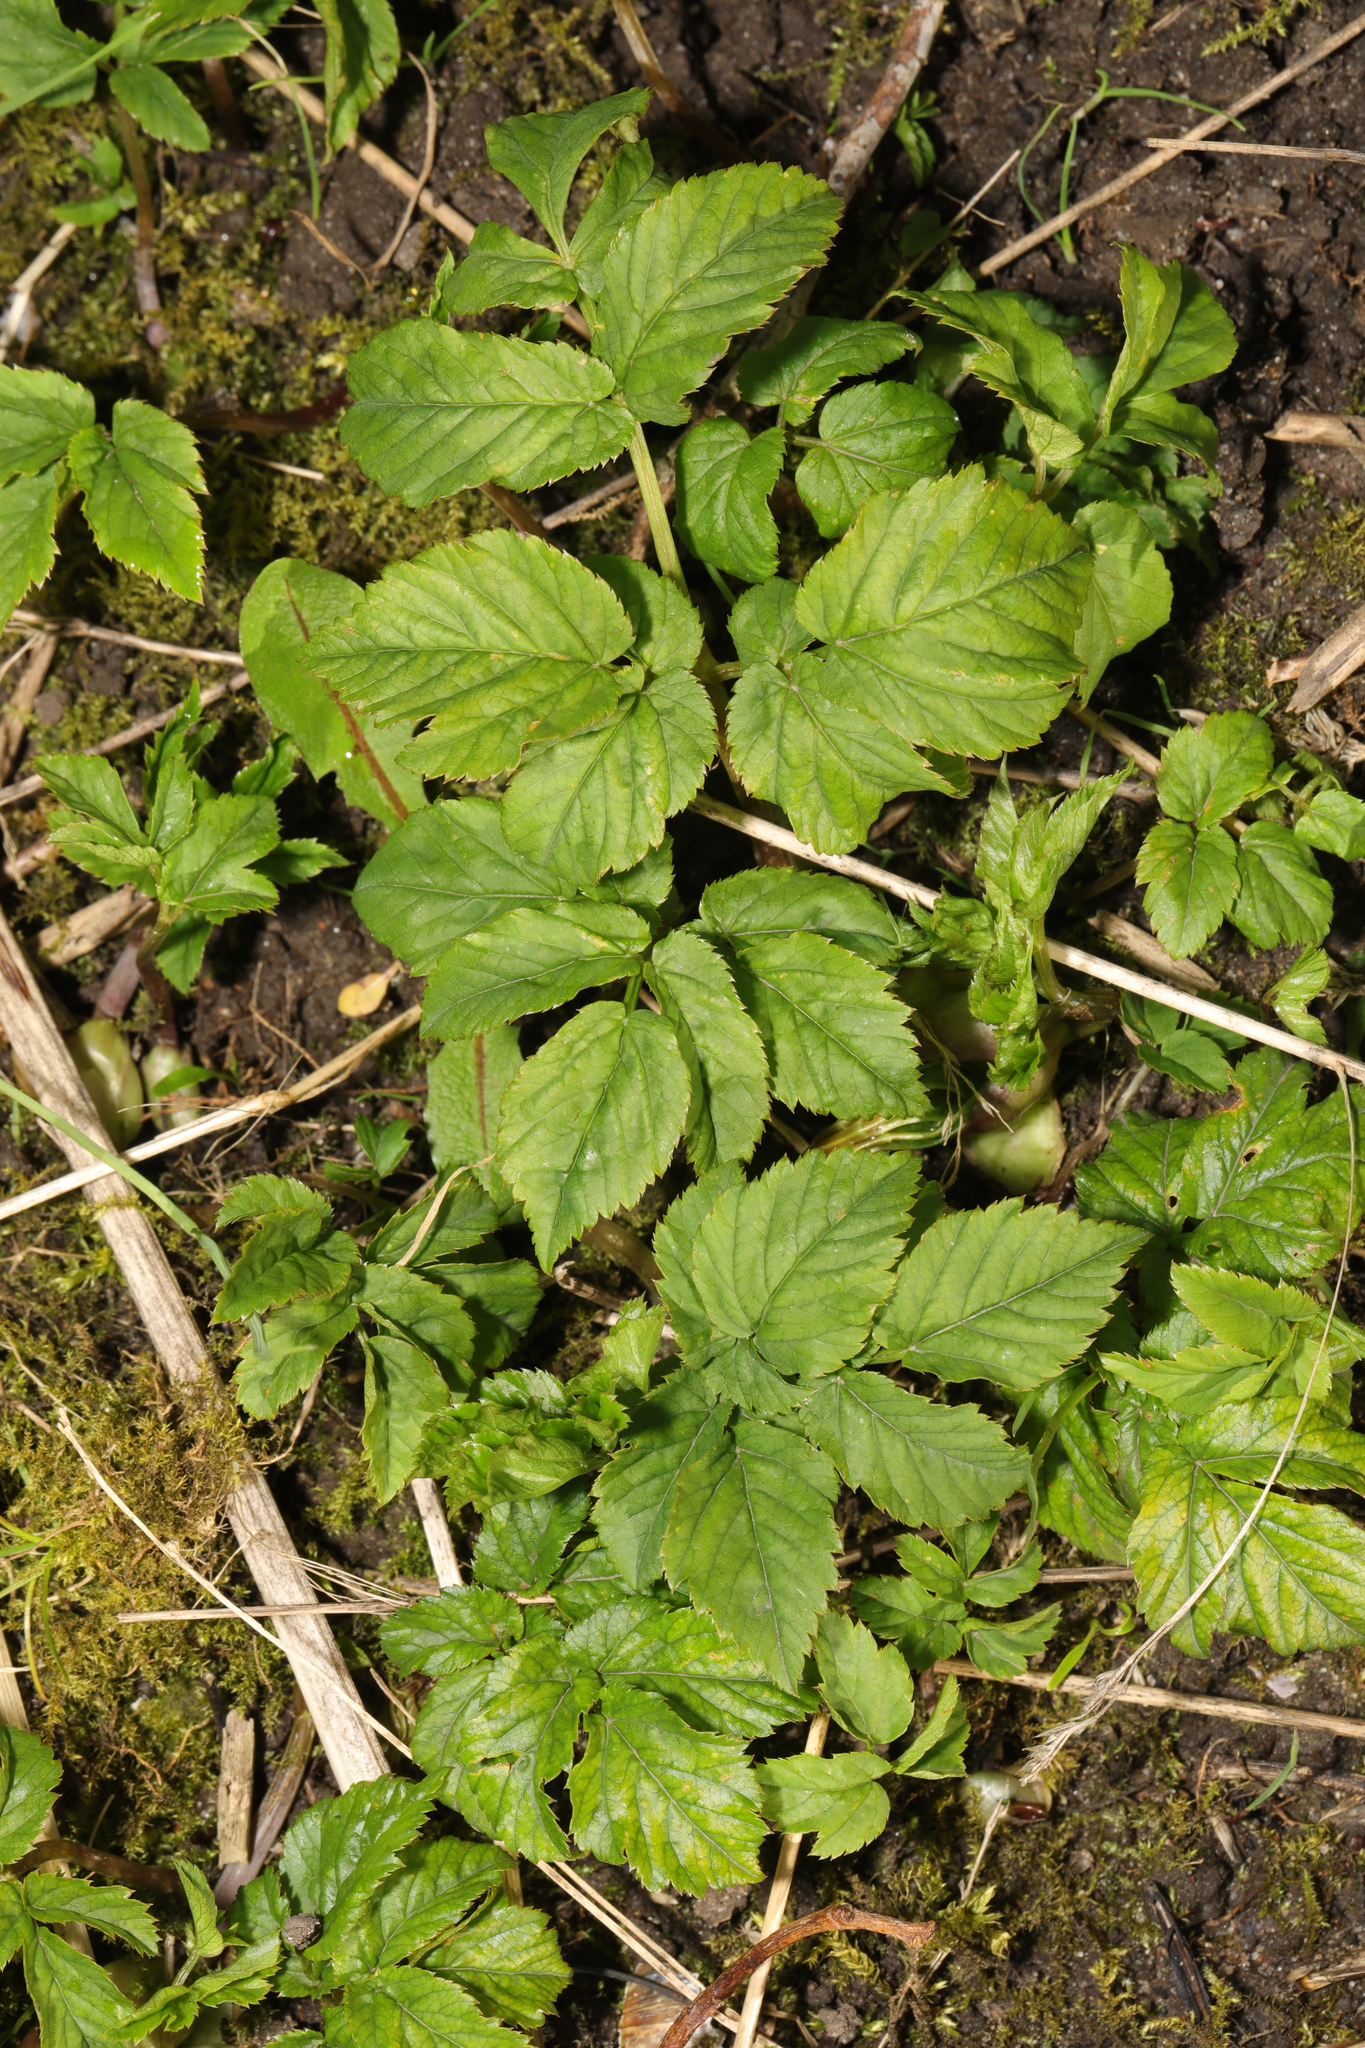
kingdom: Plantae
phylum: Tracheophyta
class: Magnoliopsida
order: Apiales
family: Apiaceae
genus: Aegopodium
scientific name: Aegopodium podagraria
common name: Ground-elder
